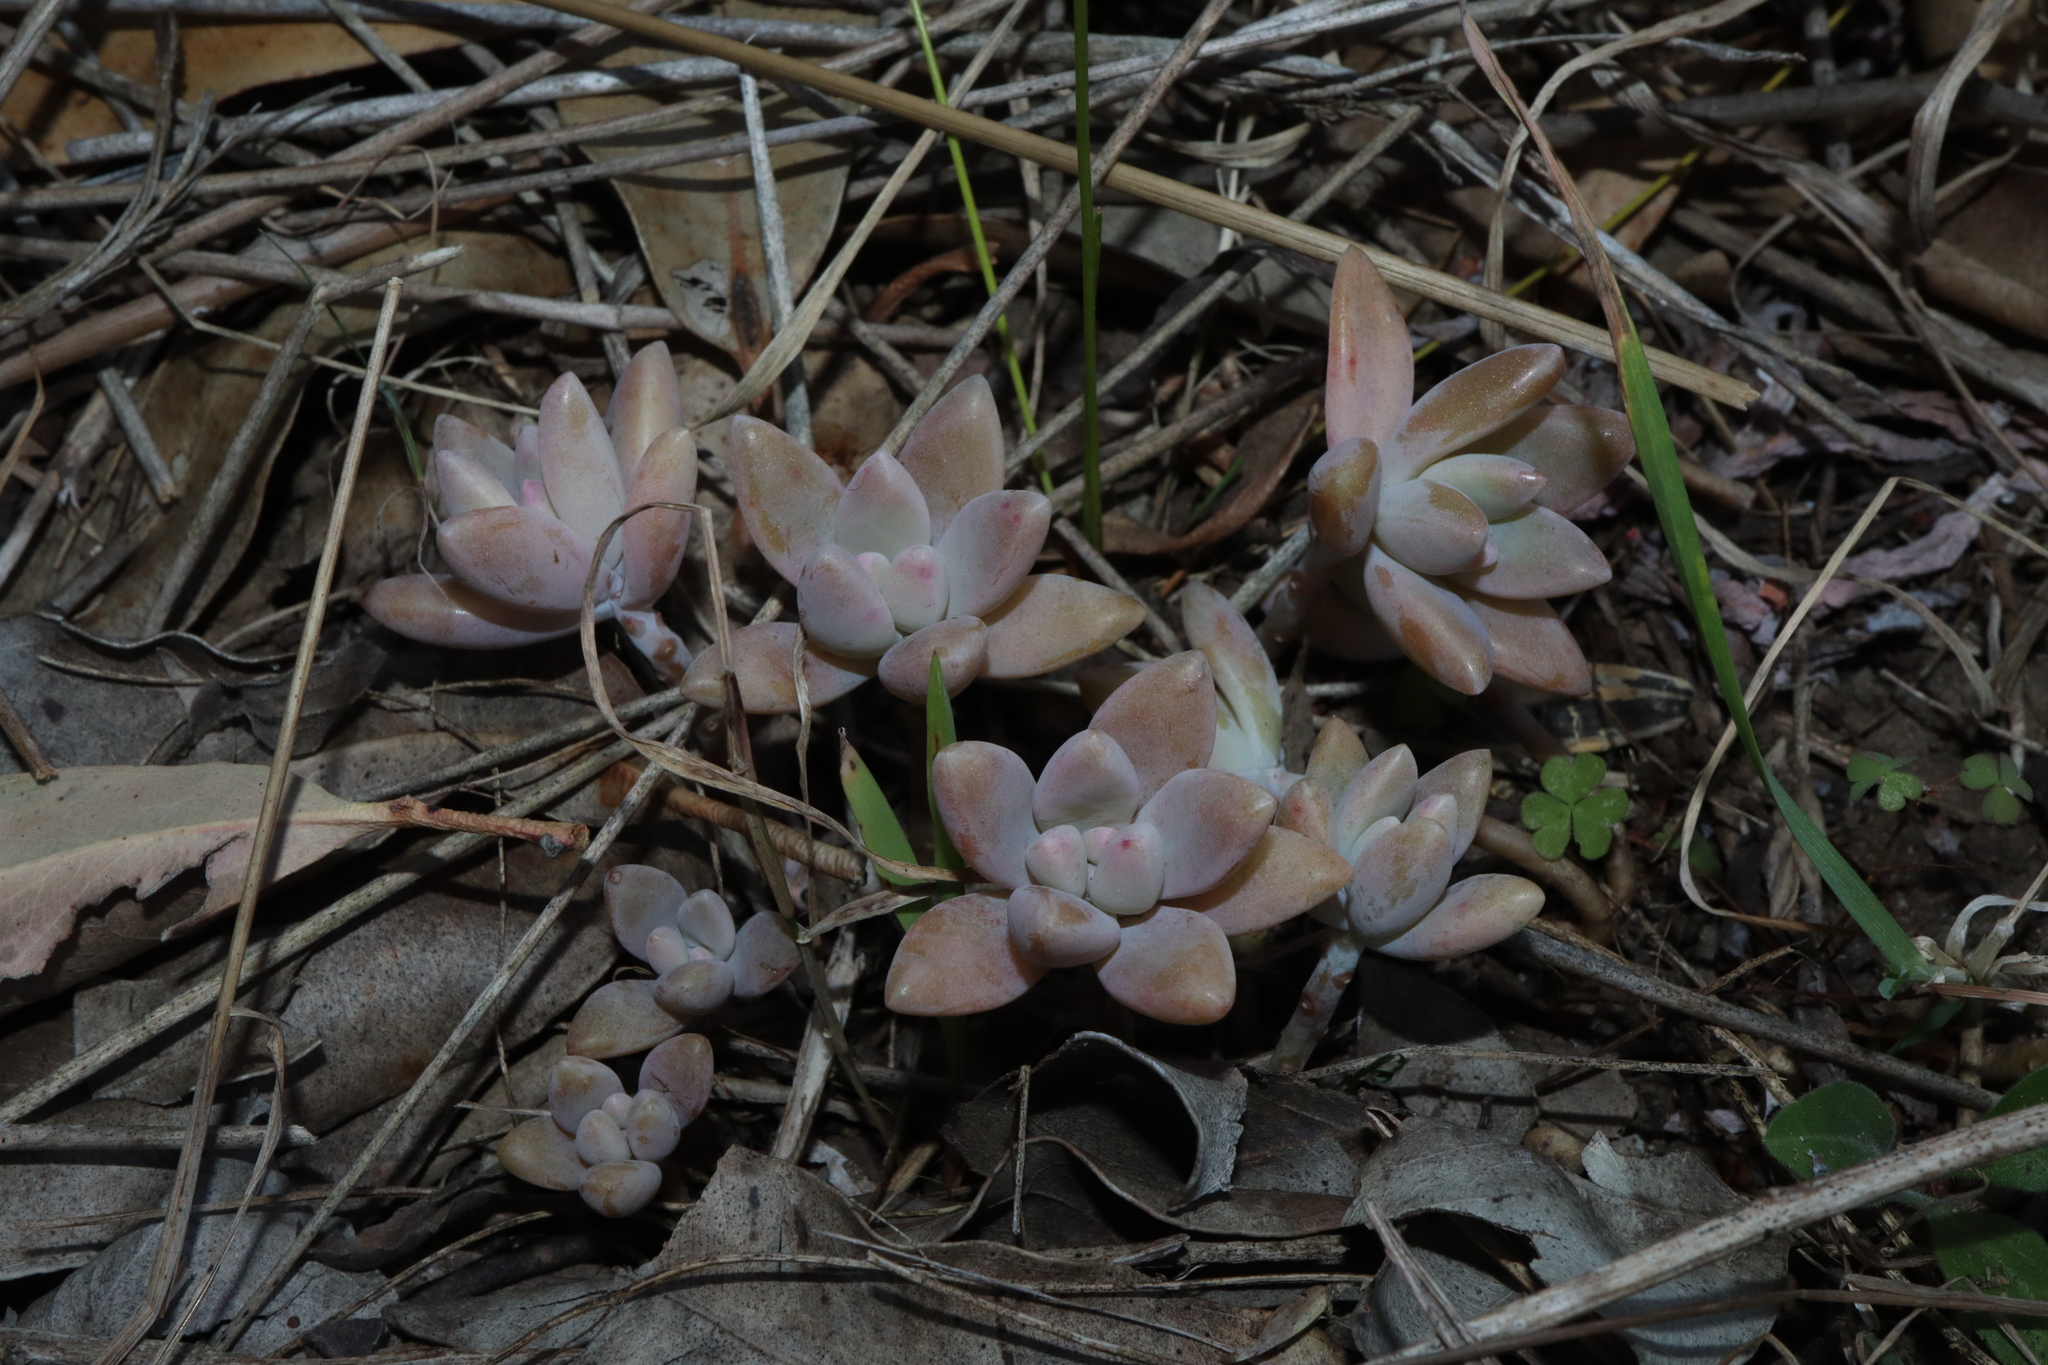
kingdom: Plantae
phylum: Tracheophyta
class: Magnoliopsida
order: Saxifragales
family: Crassulaceae
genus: Graptosedum
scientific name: Graptosedum
